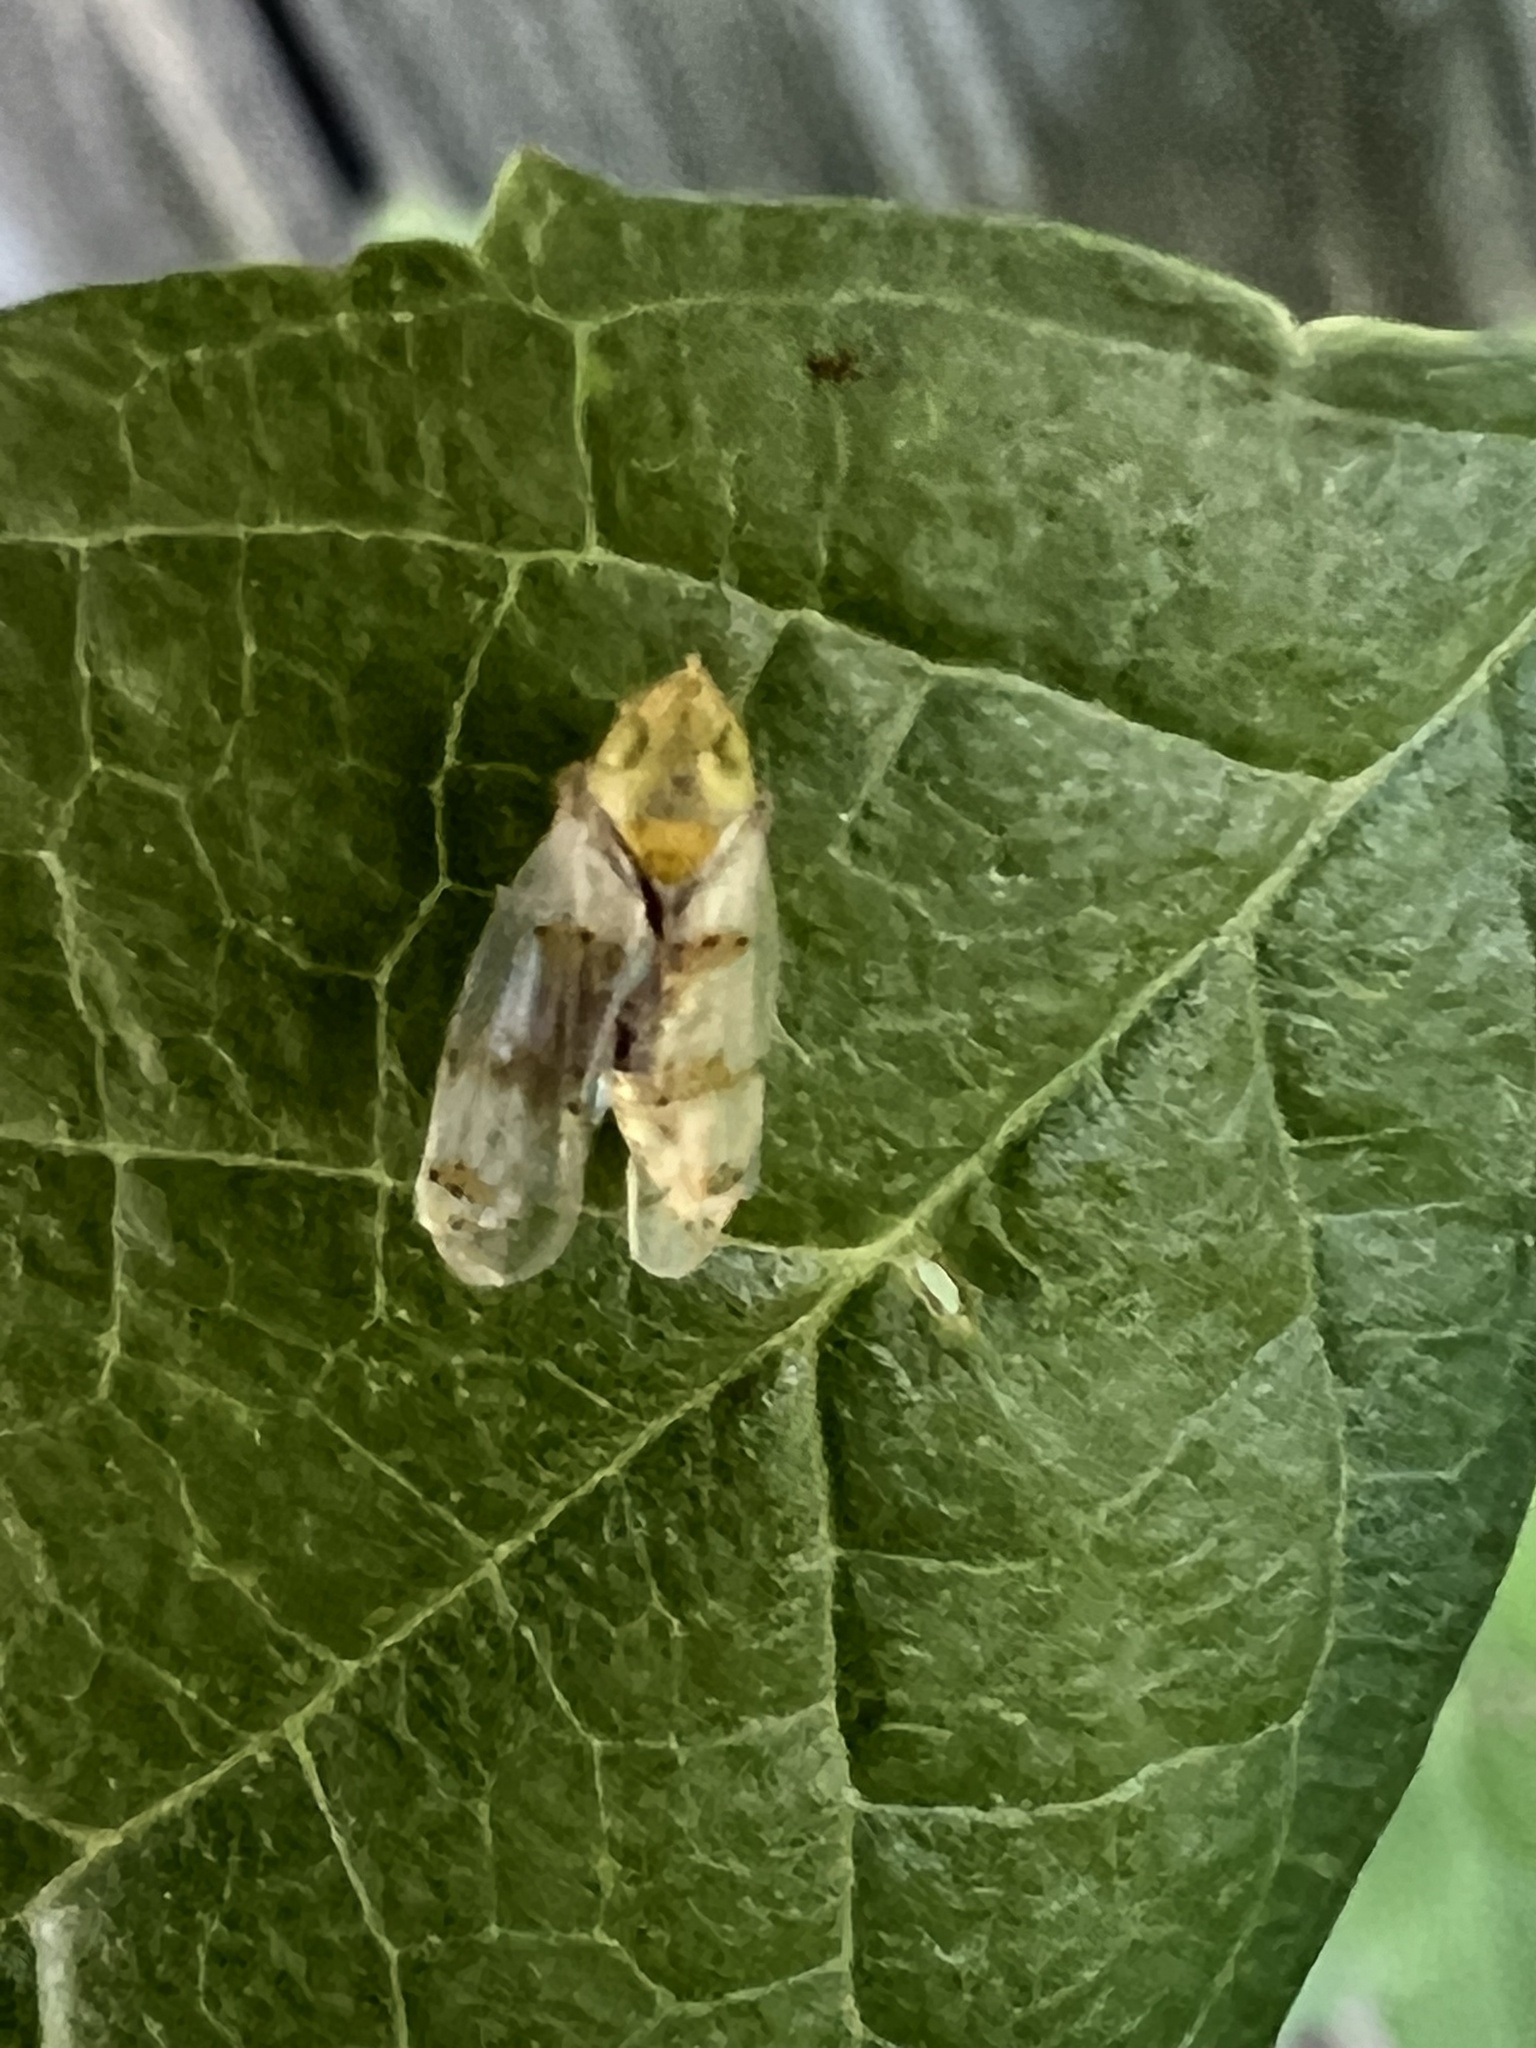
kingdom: Animalia
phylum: Arthropoda
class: Insecta
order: Hemiptera
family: Cicadellidae
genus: Japananus
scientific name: Japananus hyalinus
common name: The japanese maple leafhopper
